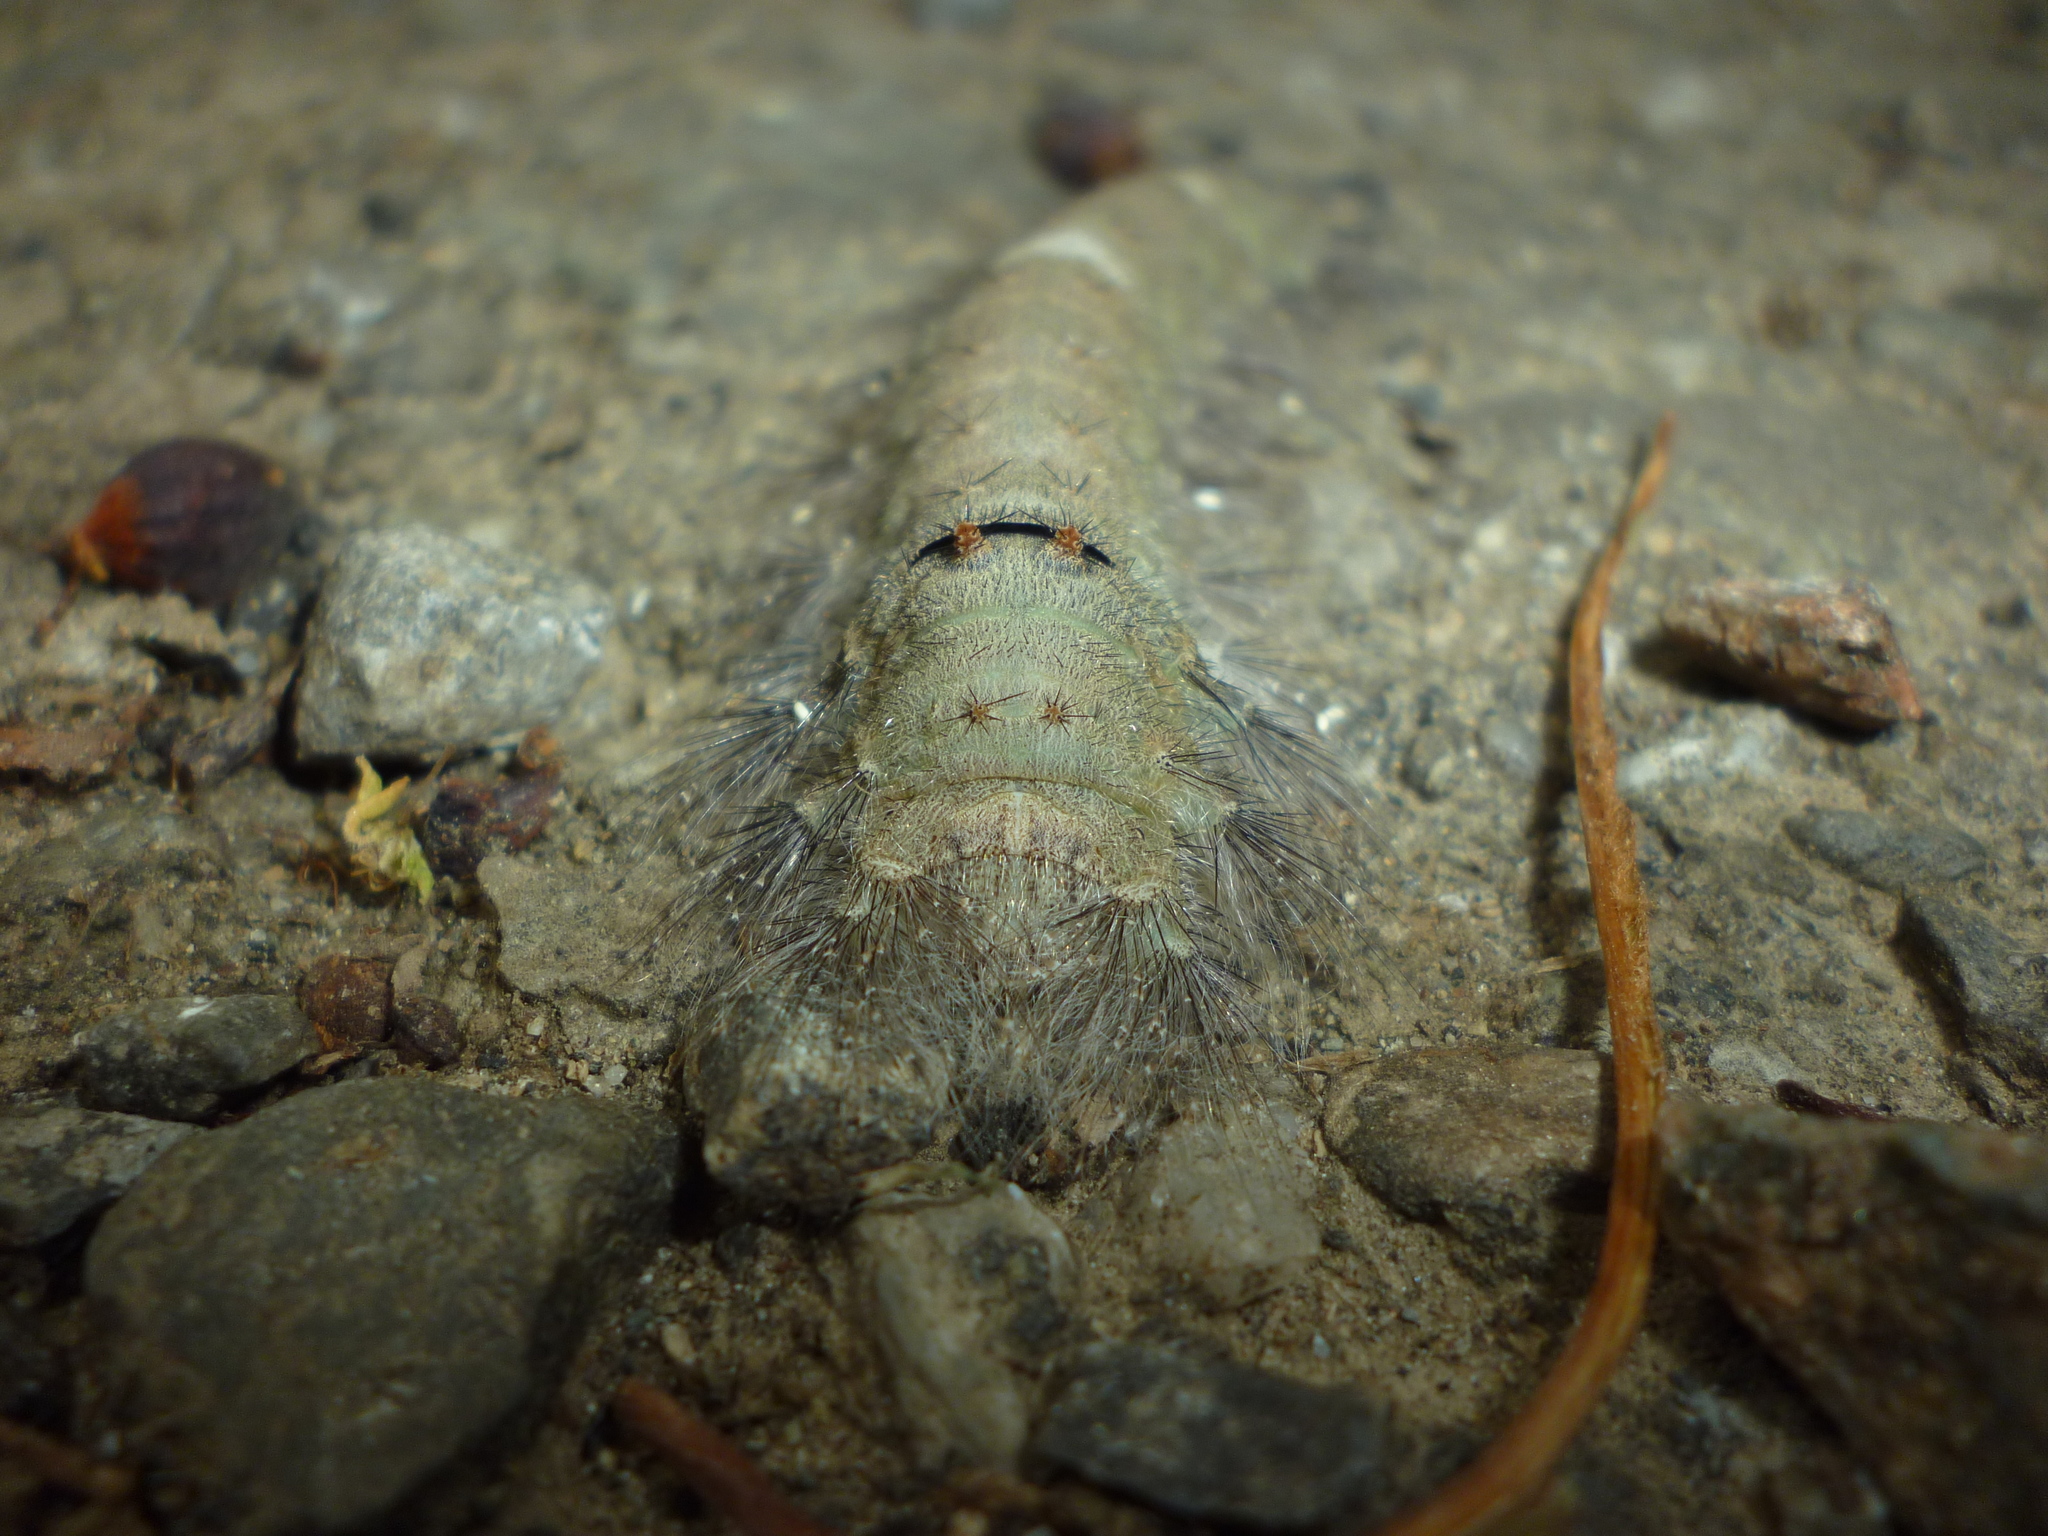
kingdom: Animalia
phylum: Arthropoda
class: Insecta
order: Lepidoptera
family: Lasiocampidae
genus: Tolype
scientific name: Tolype velleda
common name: Large tolype moth
